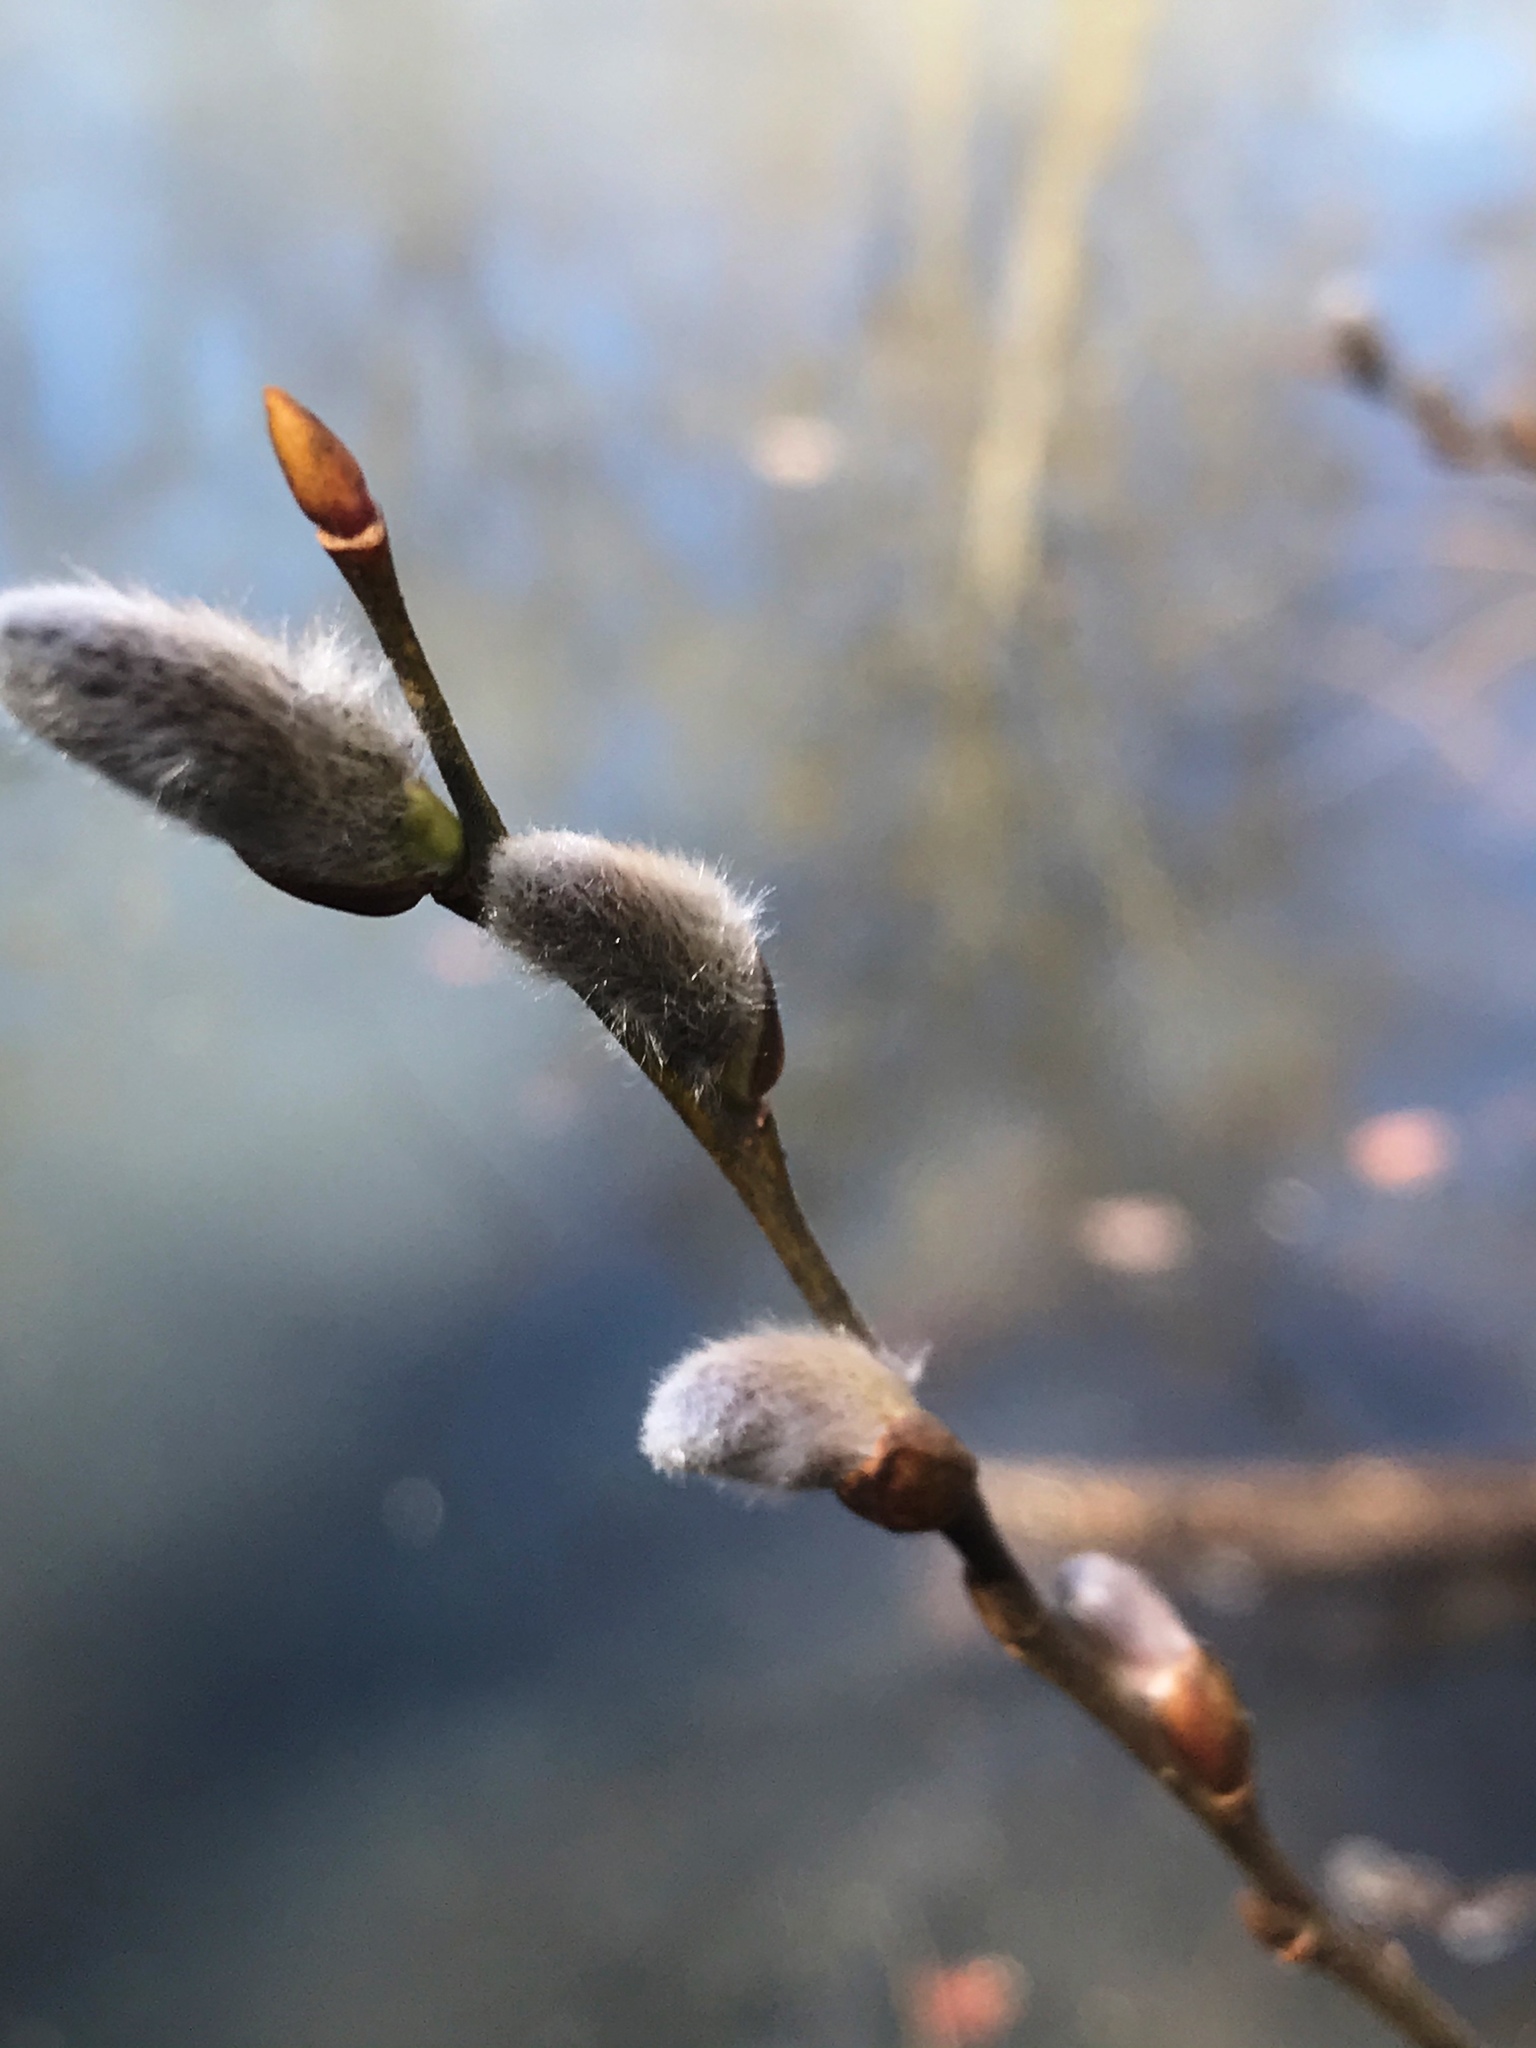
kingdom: Plantae
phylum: Tracheophyta
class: Magnoliopsida
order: Malpighiales
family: Salicaceae
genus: Salix
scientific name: Salix discolor
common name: Glaucous willow
